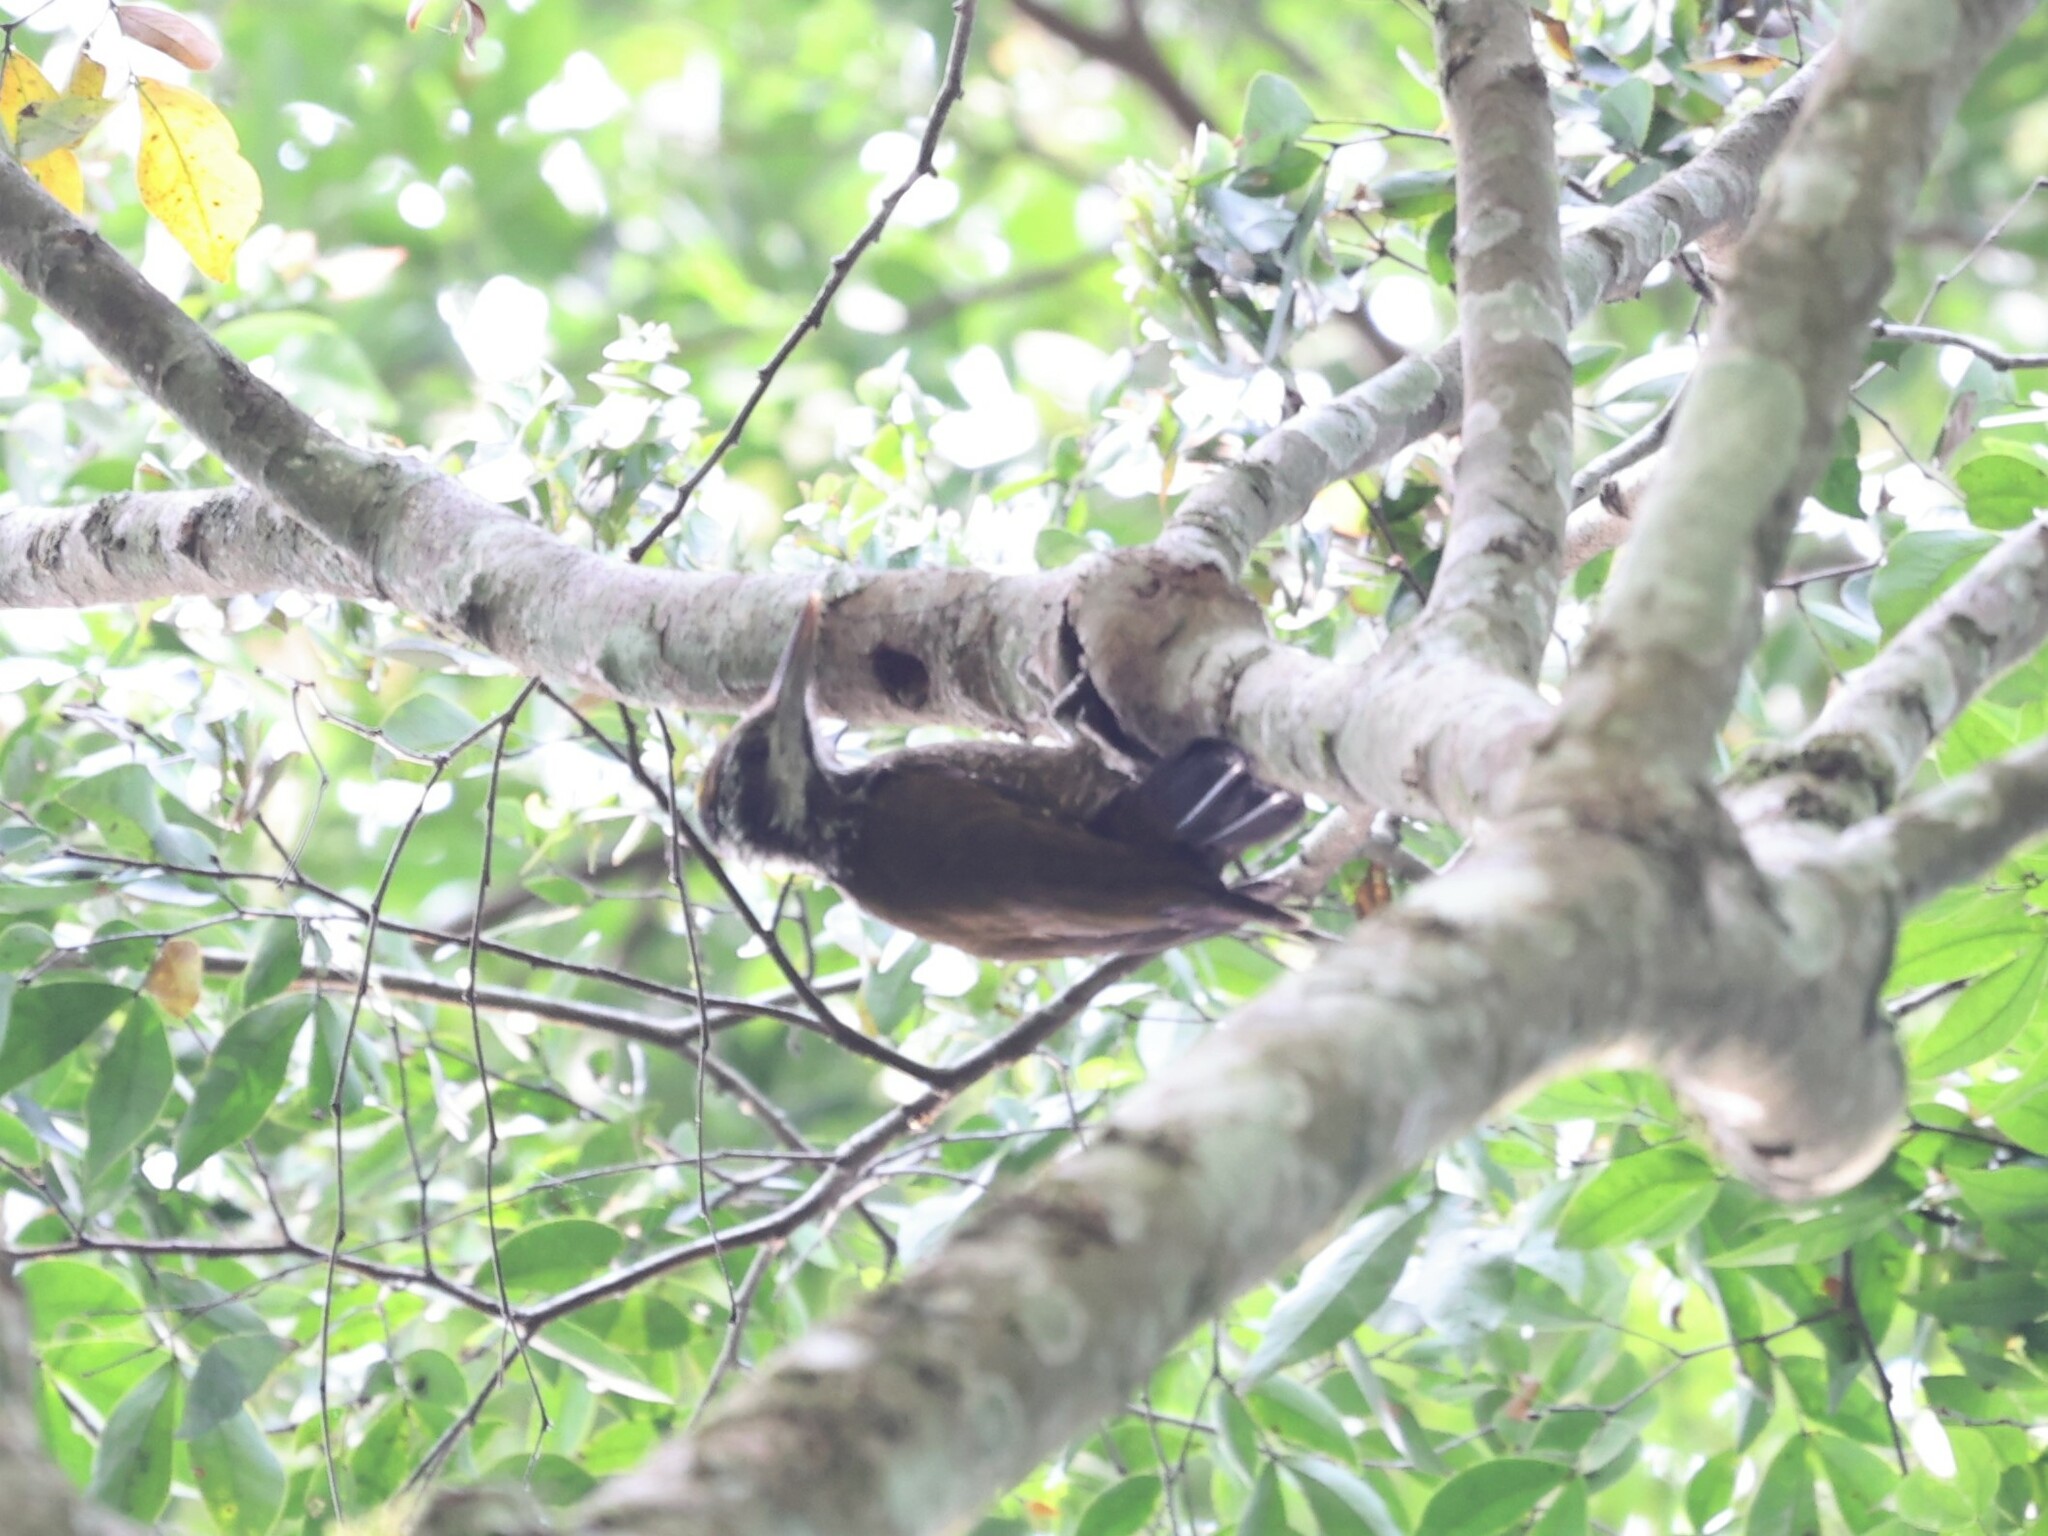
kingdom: Animalia
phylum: Chordata
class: Aves
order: Piciformes
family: Picidae
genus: Chloropicus
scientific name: Chloropicus xantholophus
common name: Yellow-crested woodpecker
